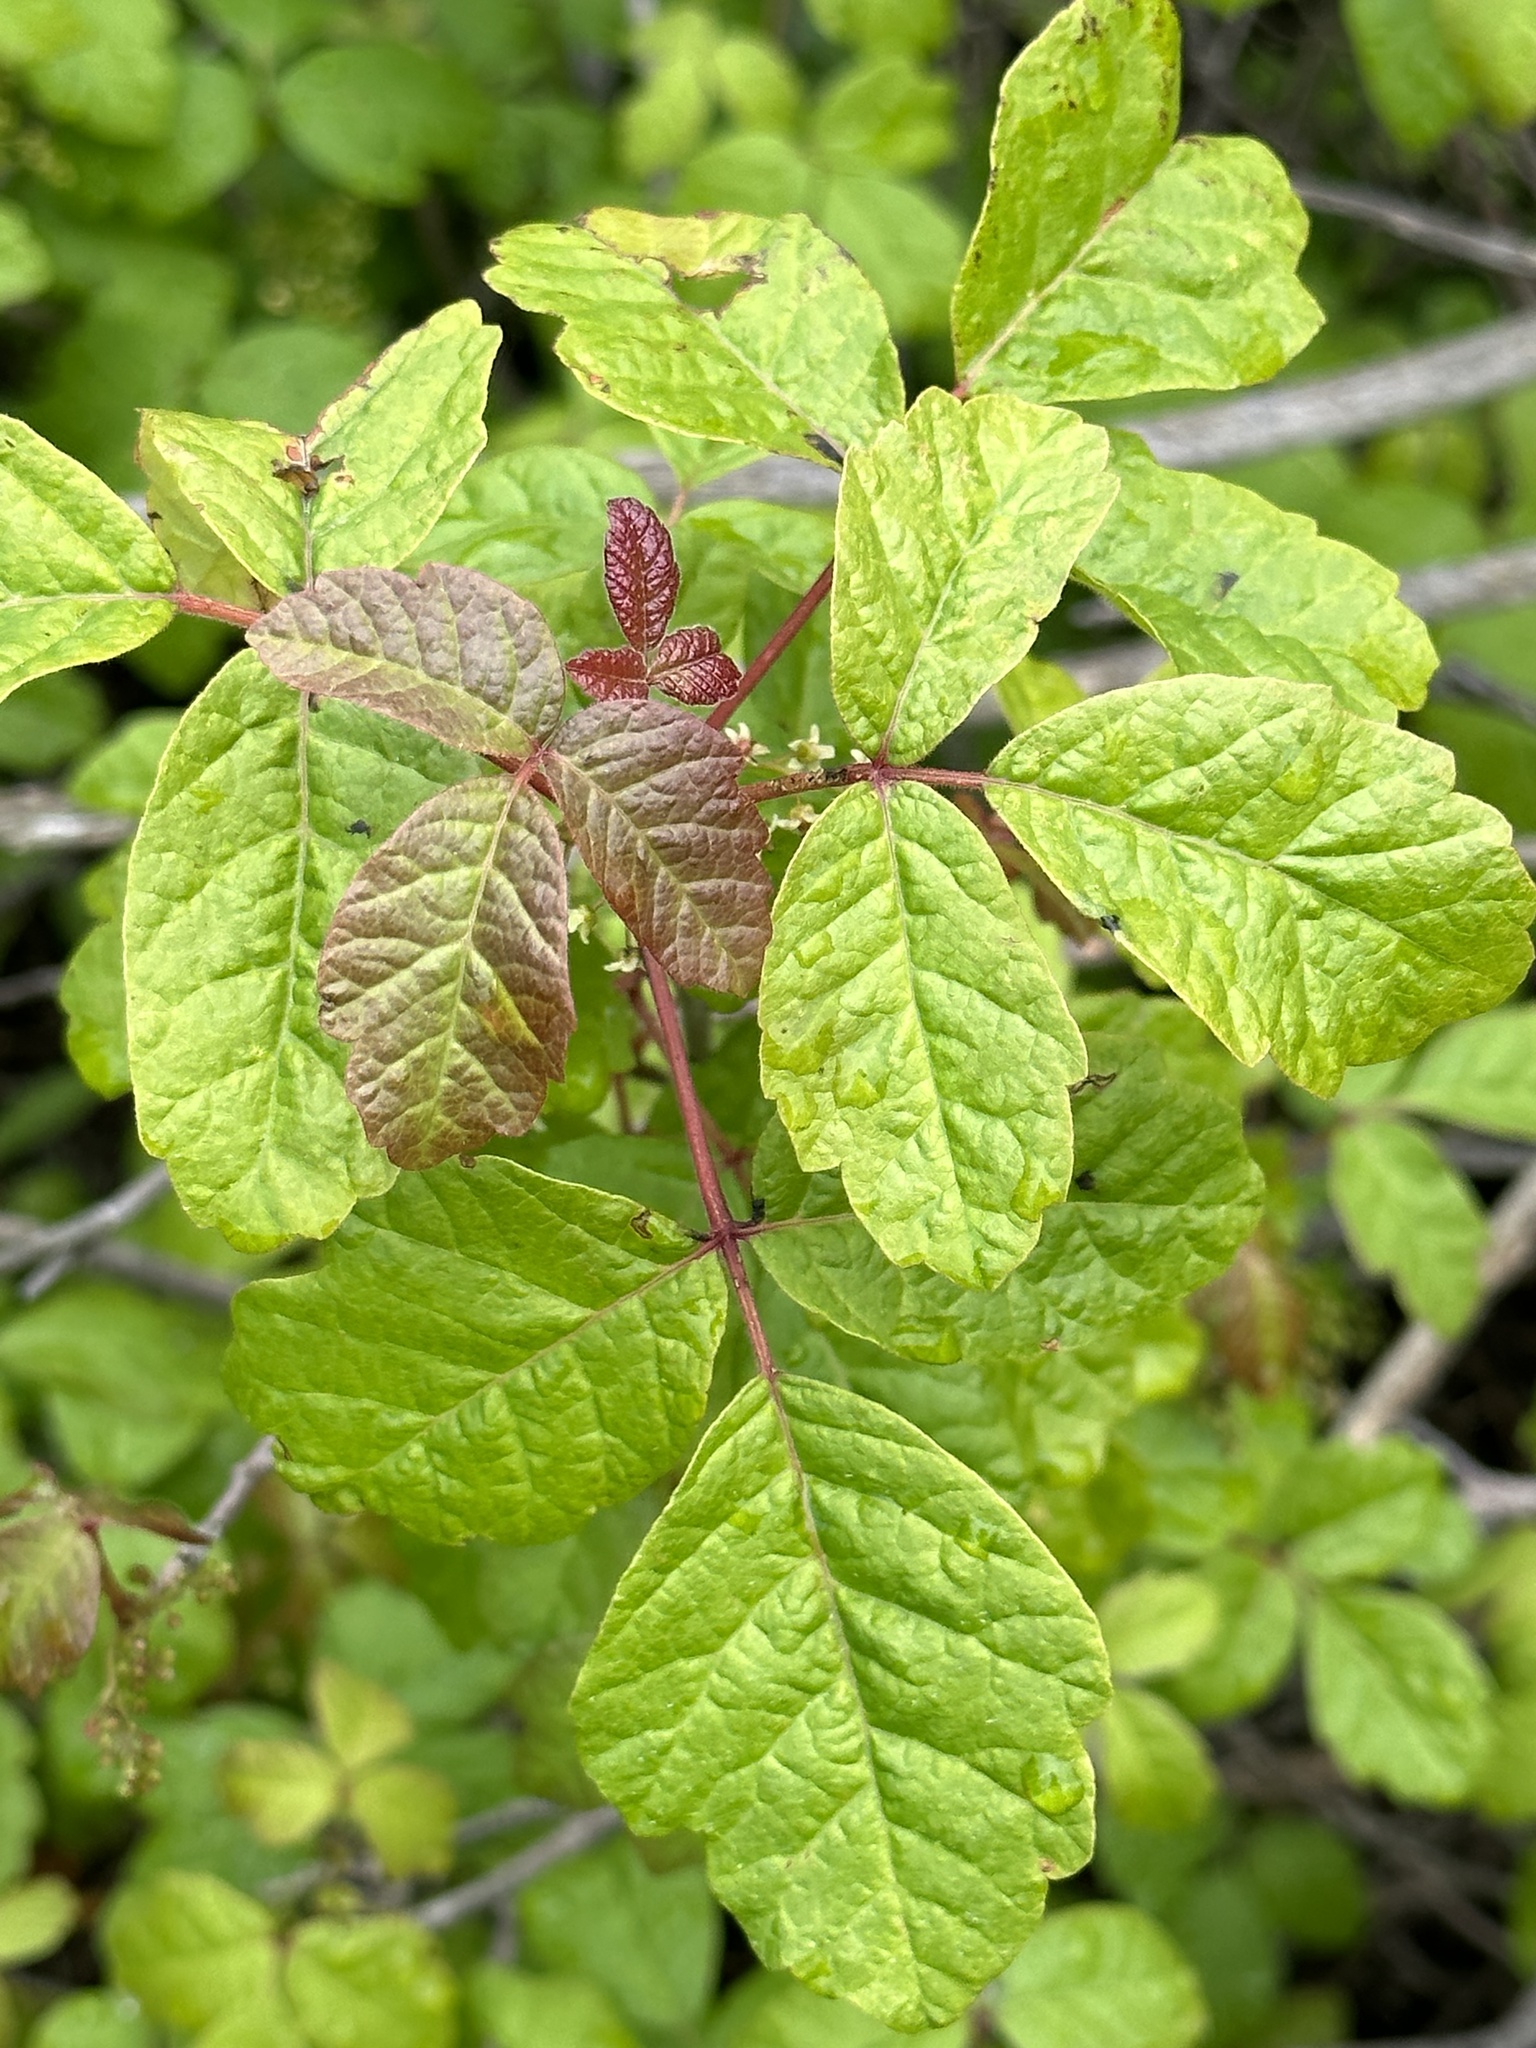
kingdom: Plantae
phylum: Tracheophyta
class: Magnoliopsida
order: Sapindales
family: Anacardiaceae
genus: Toxicodendron
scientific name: Toxicodendron diversilobum
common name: Pacific poison-oak
